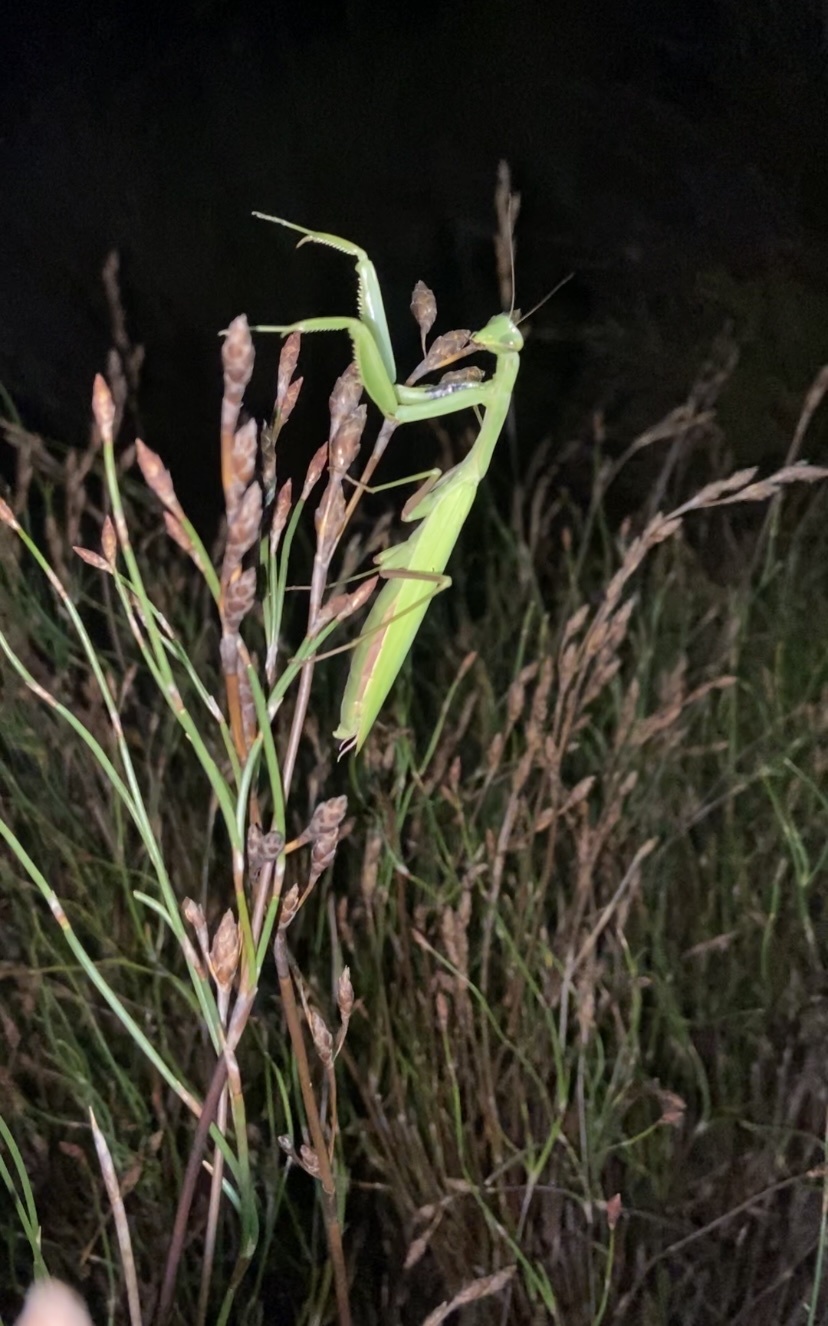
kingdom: Animalia
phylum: Arthropoda
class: Insecta
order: Mantodea
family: Mantidae
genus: Paramantis
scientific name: Paramantis sacra
